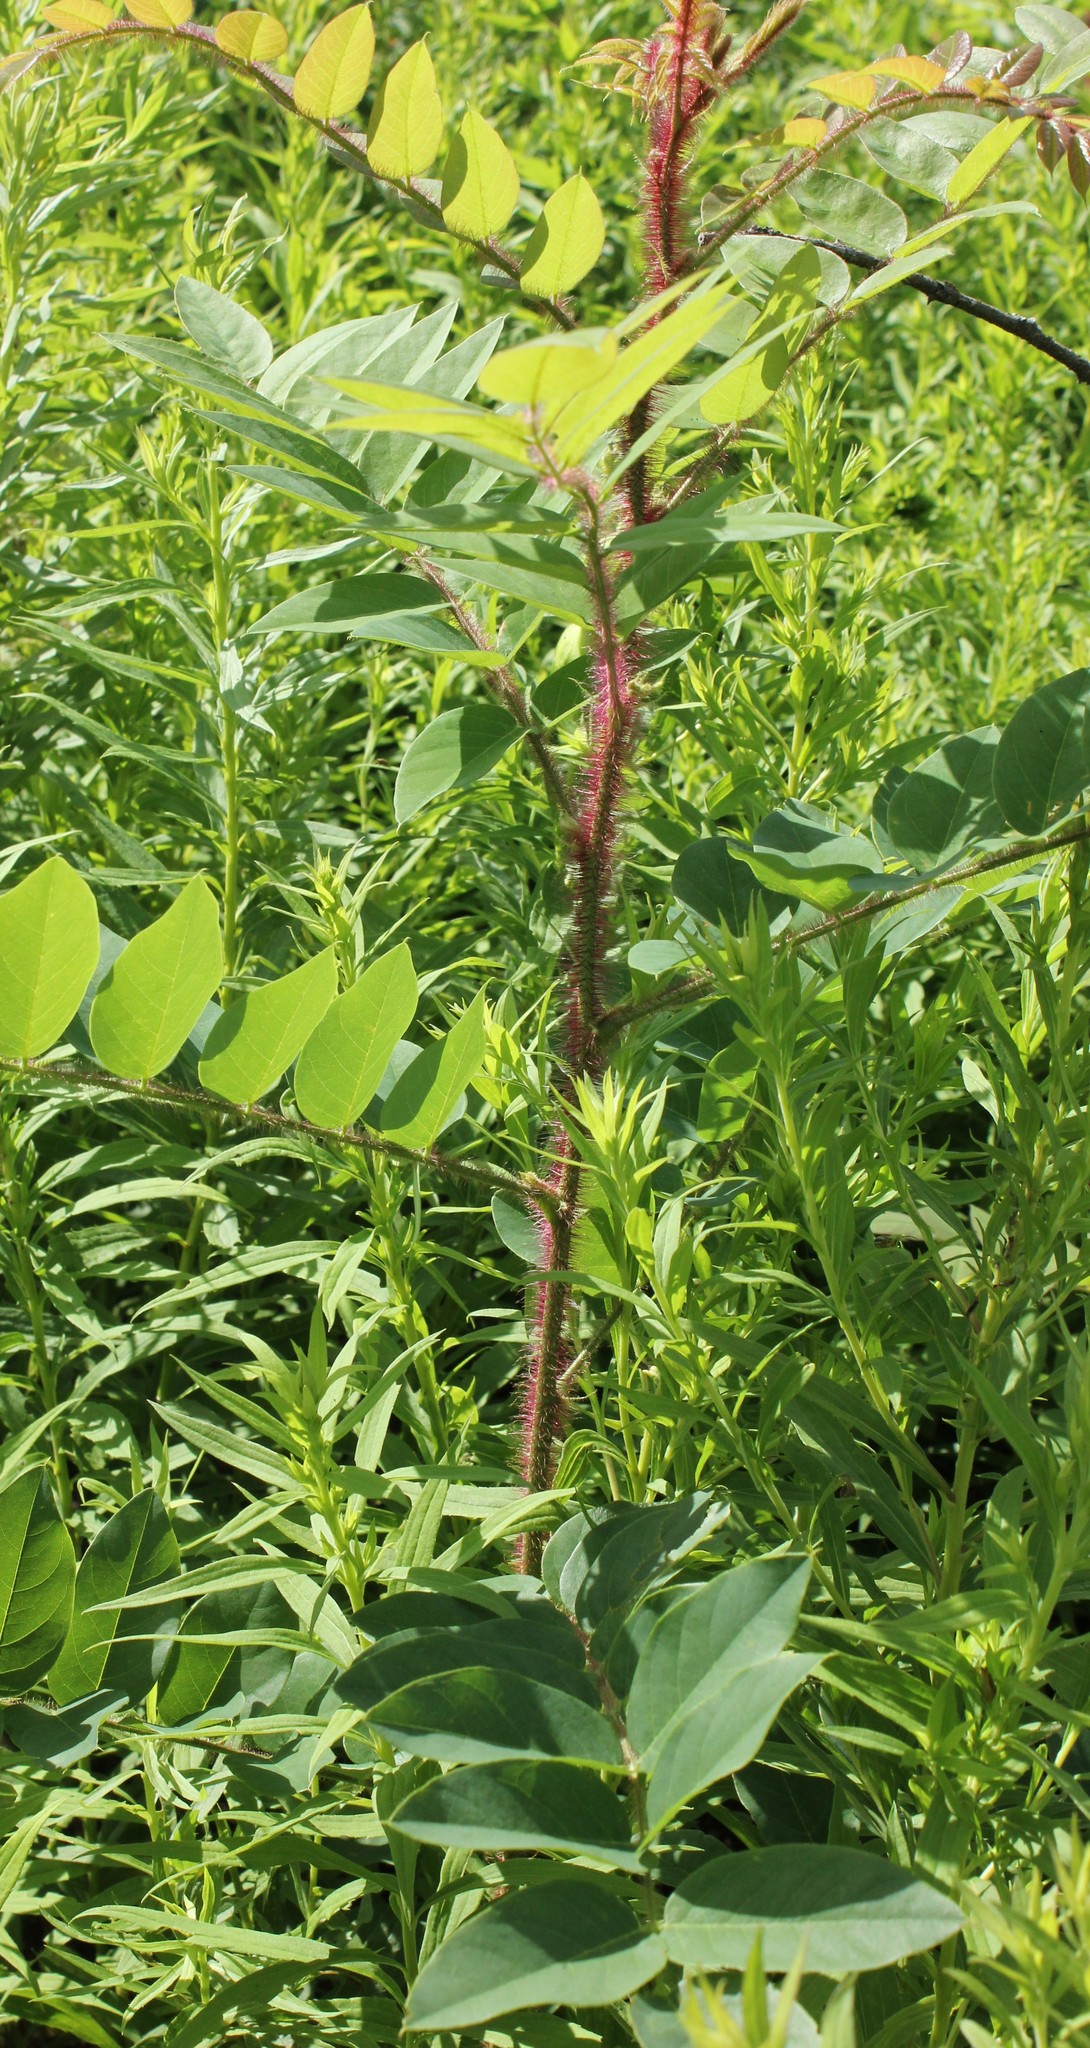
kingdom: Plantae
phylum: Tracheophyta
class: Magnoliopsida
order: Fabales
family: Fabaceae
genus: Robinia
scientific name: Robinia hispida
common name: Bristly locust
